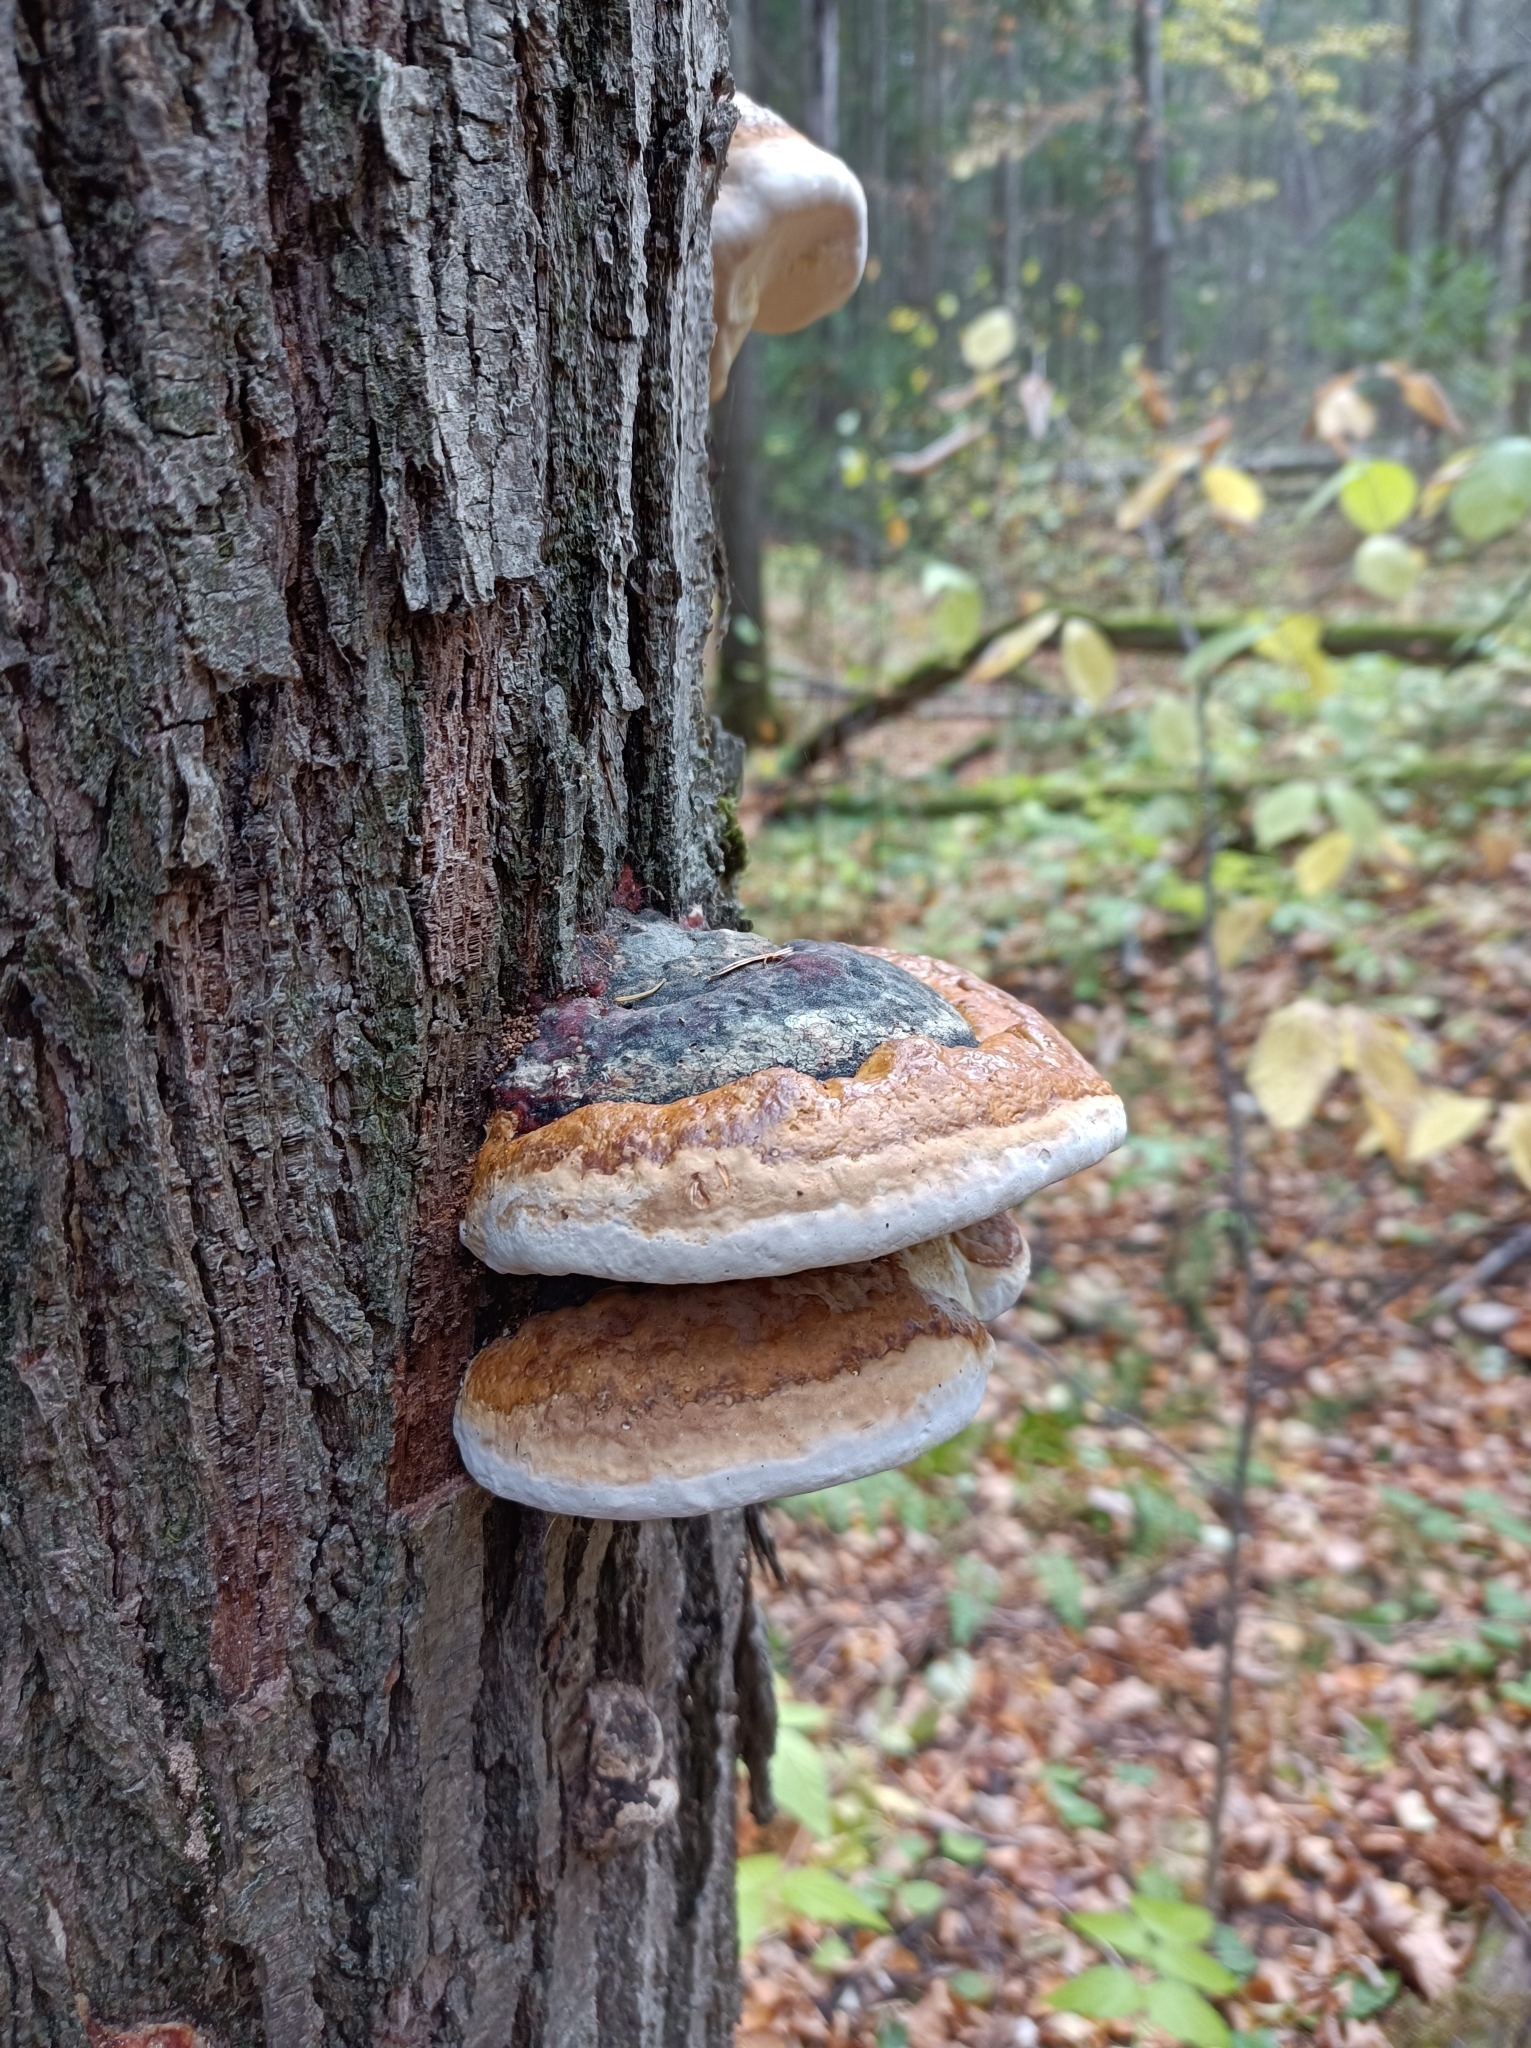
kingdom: Fungi
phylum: Basidiomycota
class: Agaricomycetes
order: Polyporales
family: Fomitopsidaceae
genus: Fomitopsis
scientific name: Fomitopsis pinicola
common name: Red-belted bracket
